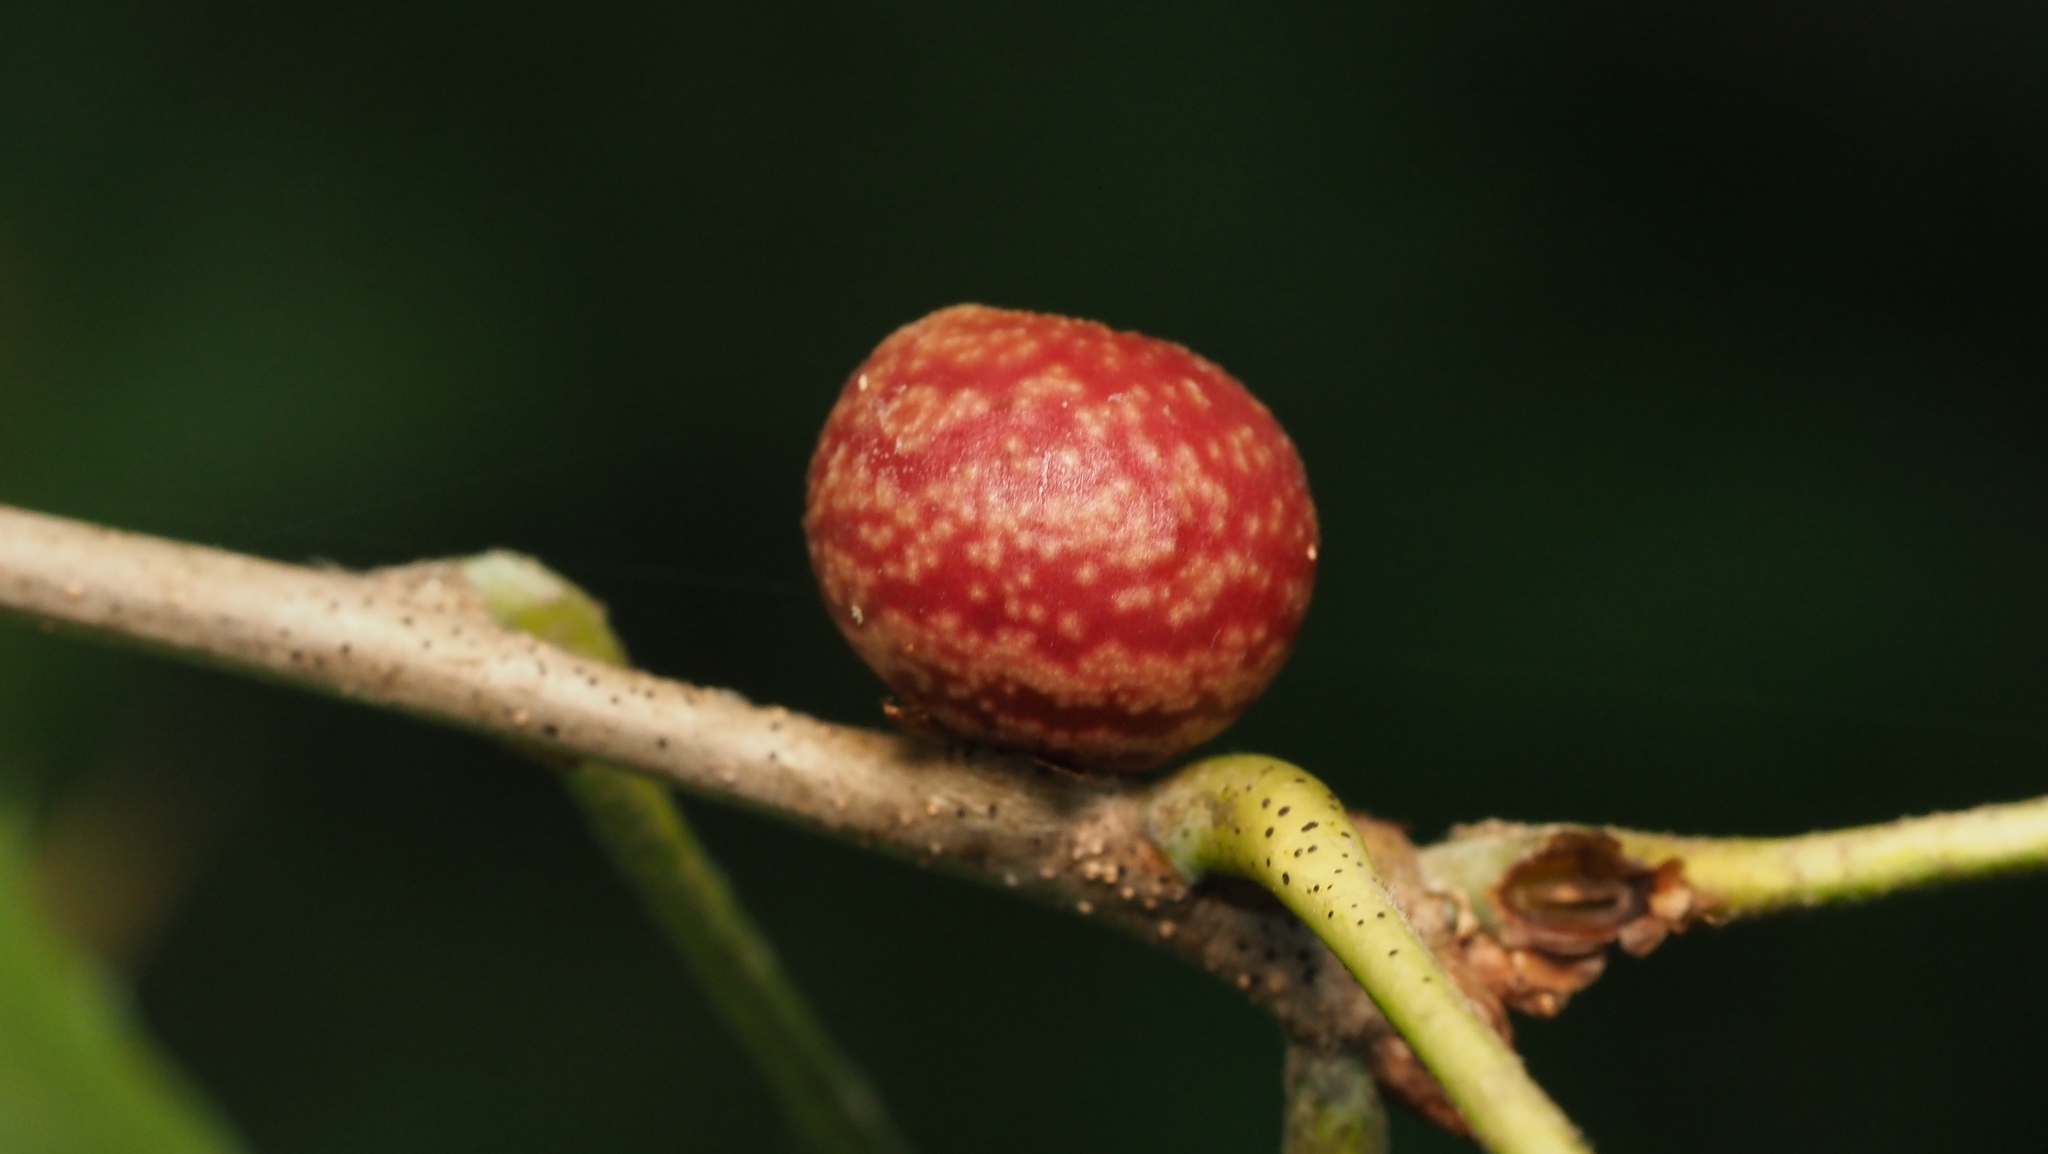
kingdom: Animalia
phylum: Arthropoda
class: Insecta
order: Hymenoptera
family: Cynipidae
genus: Kokkocynips
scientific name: Kokkocynips imbricariae
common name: Banded bullet gall wasp
